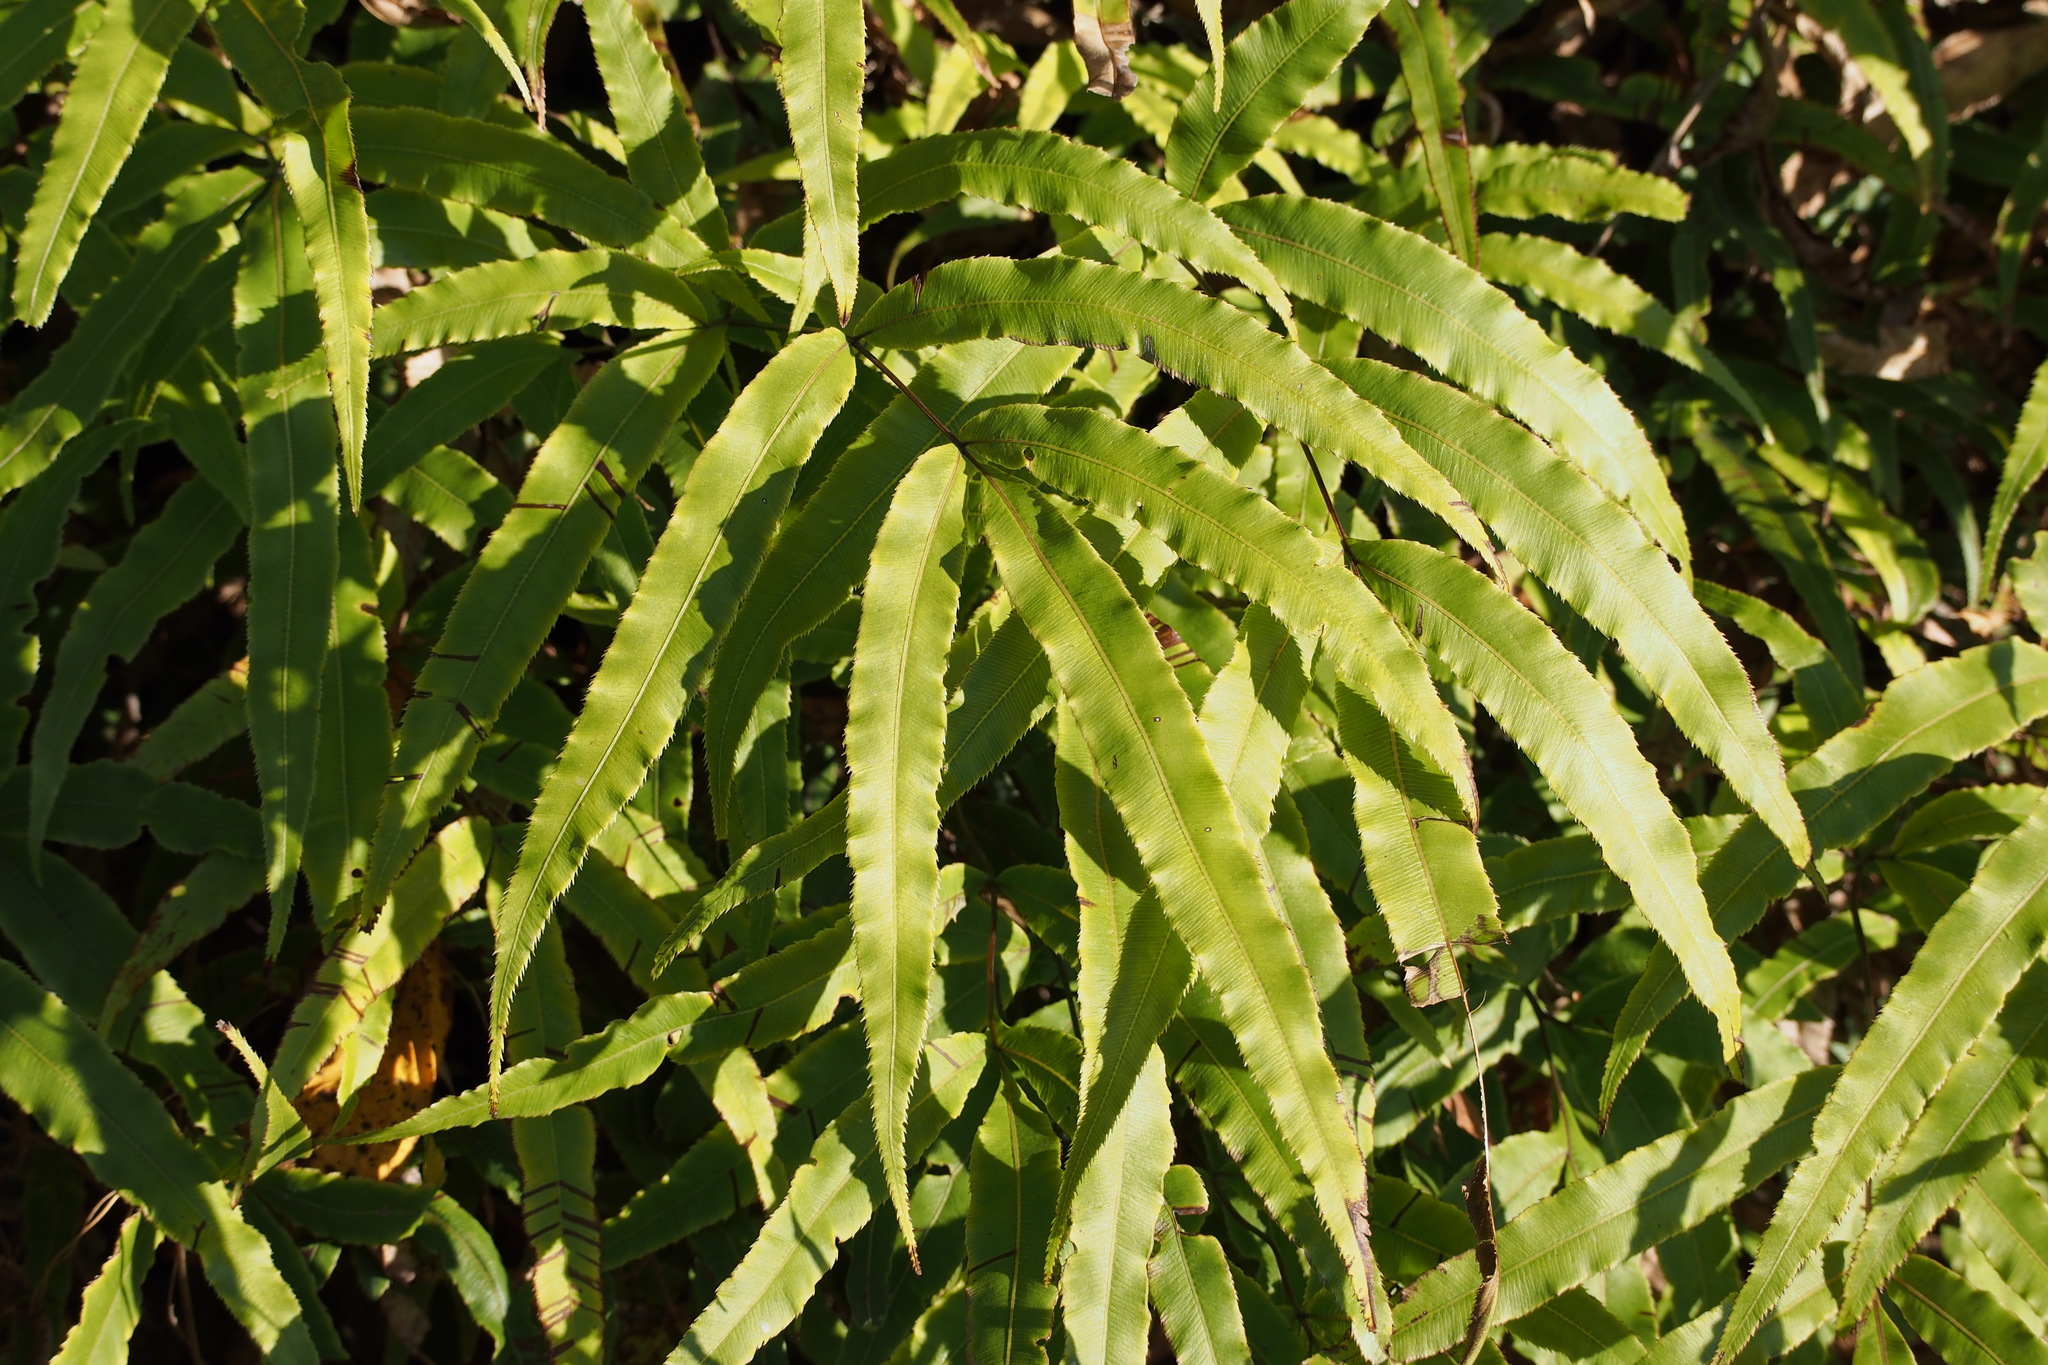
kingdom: Plantae
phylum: Tracheophyta
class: Polypodiopsida
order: Polypodiales
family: Pteridaceae
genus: Pteris
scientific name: Pteris cretica
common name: Ribbon fern
